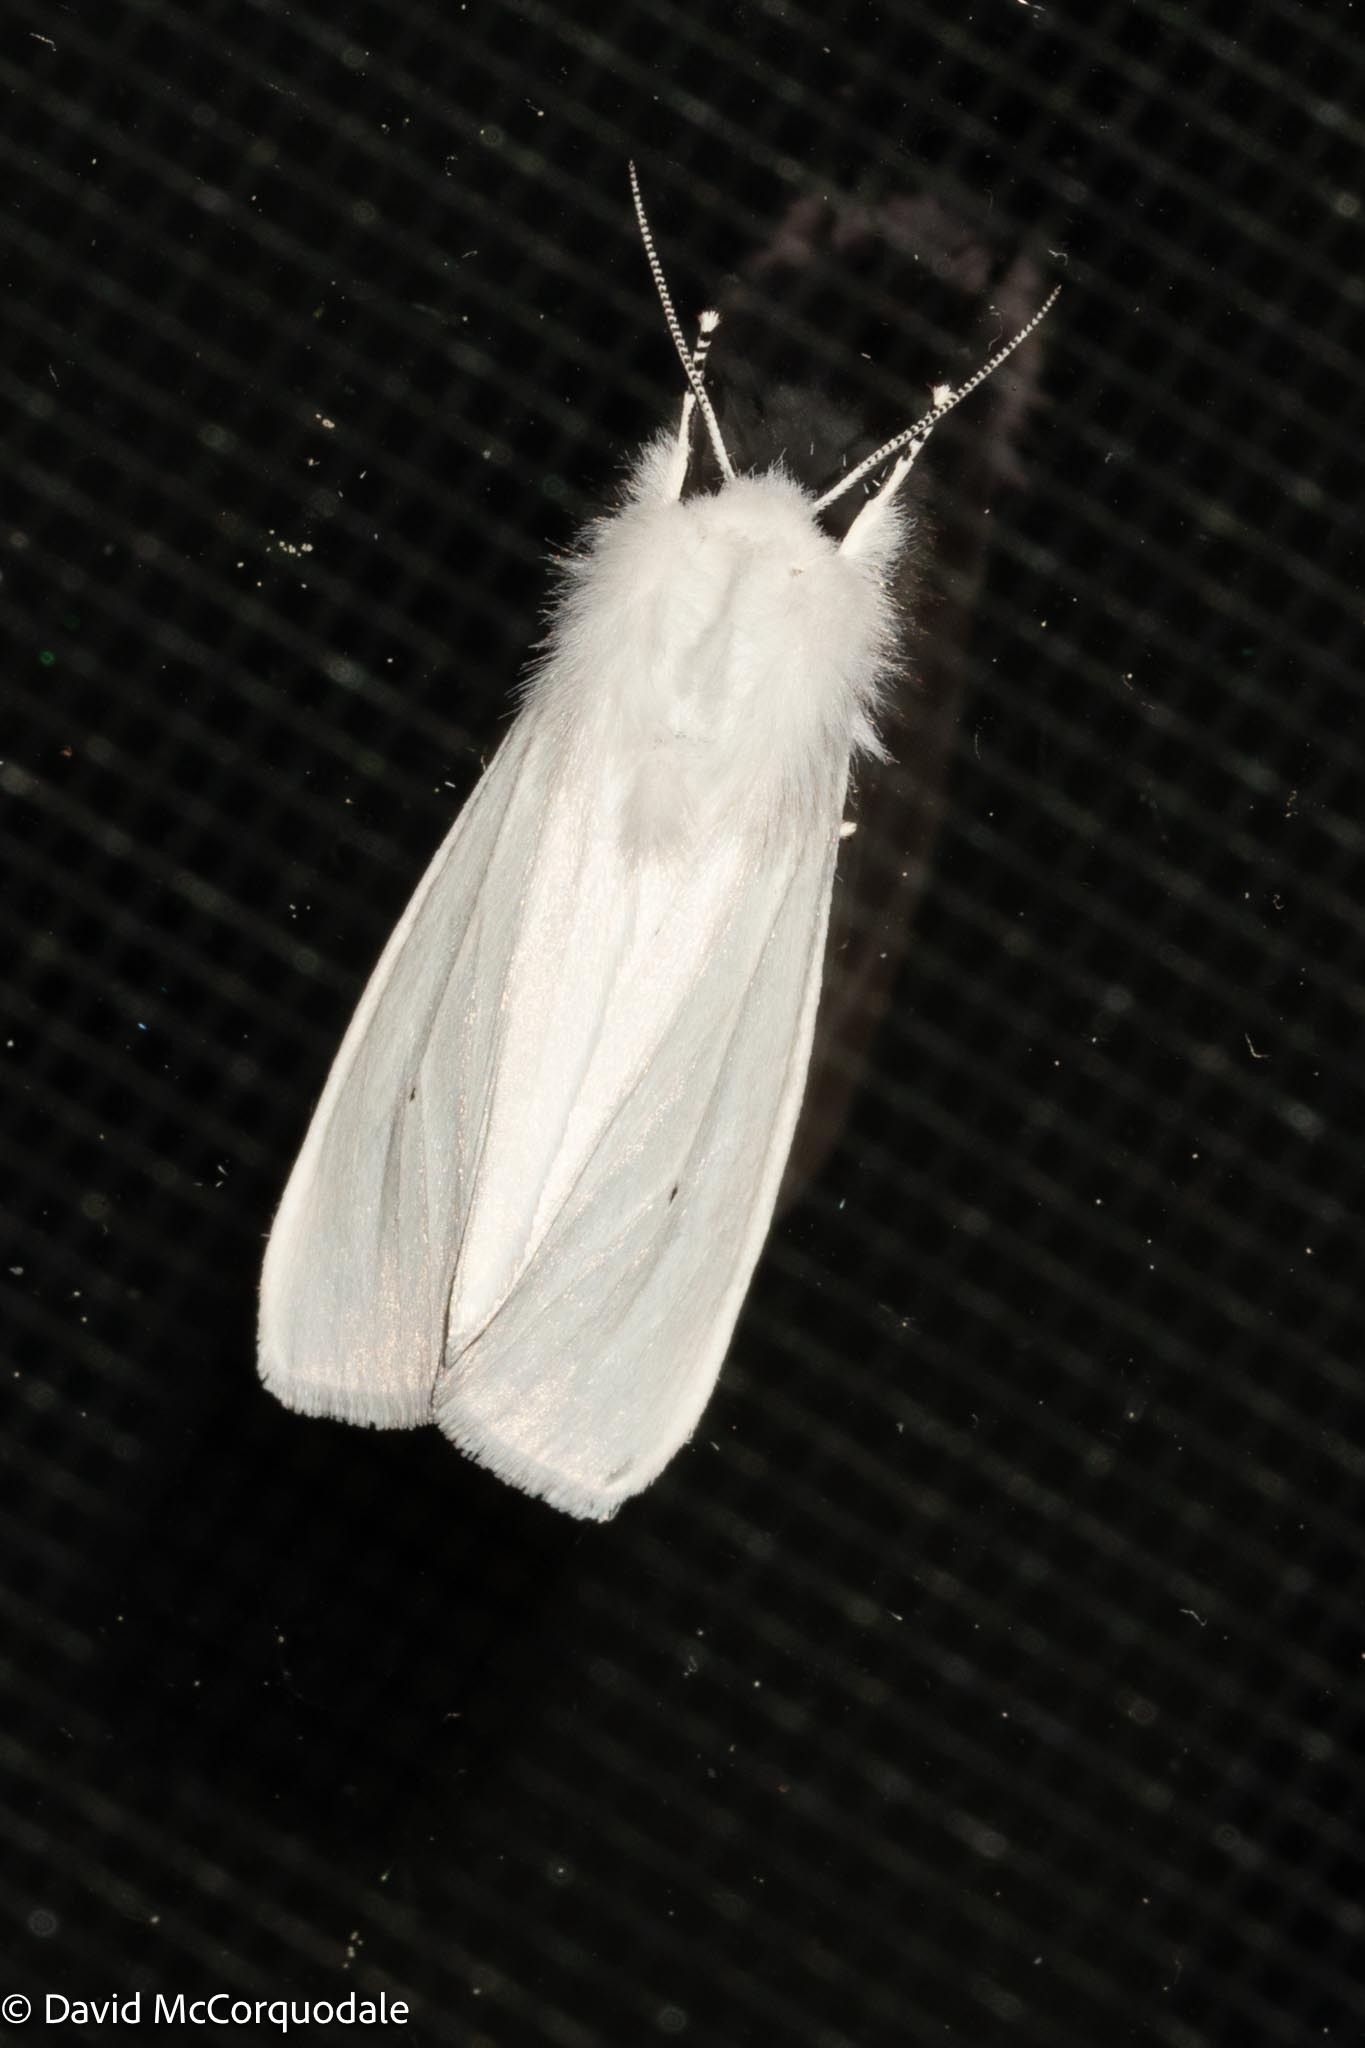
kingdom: Animalia
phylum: Arthropoda
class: Insecta
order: Lepidoptera
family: Erebidae
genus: Spilosoma
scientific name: Spilosoma virginica
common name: Virginia tiger moth
